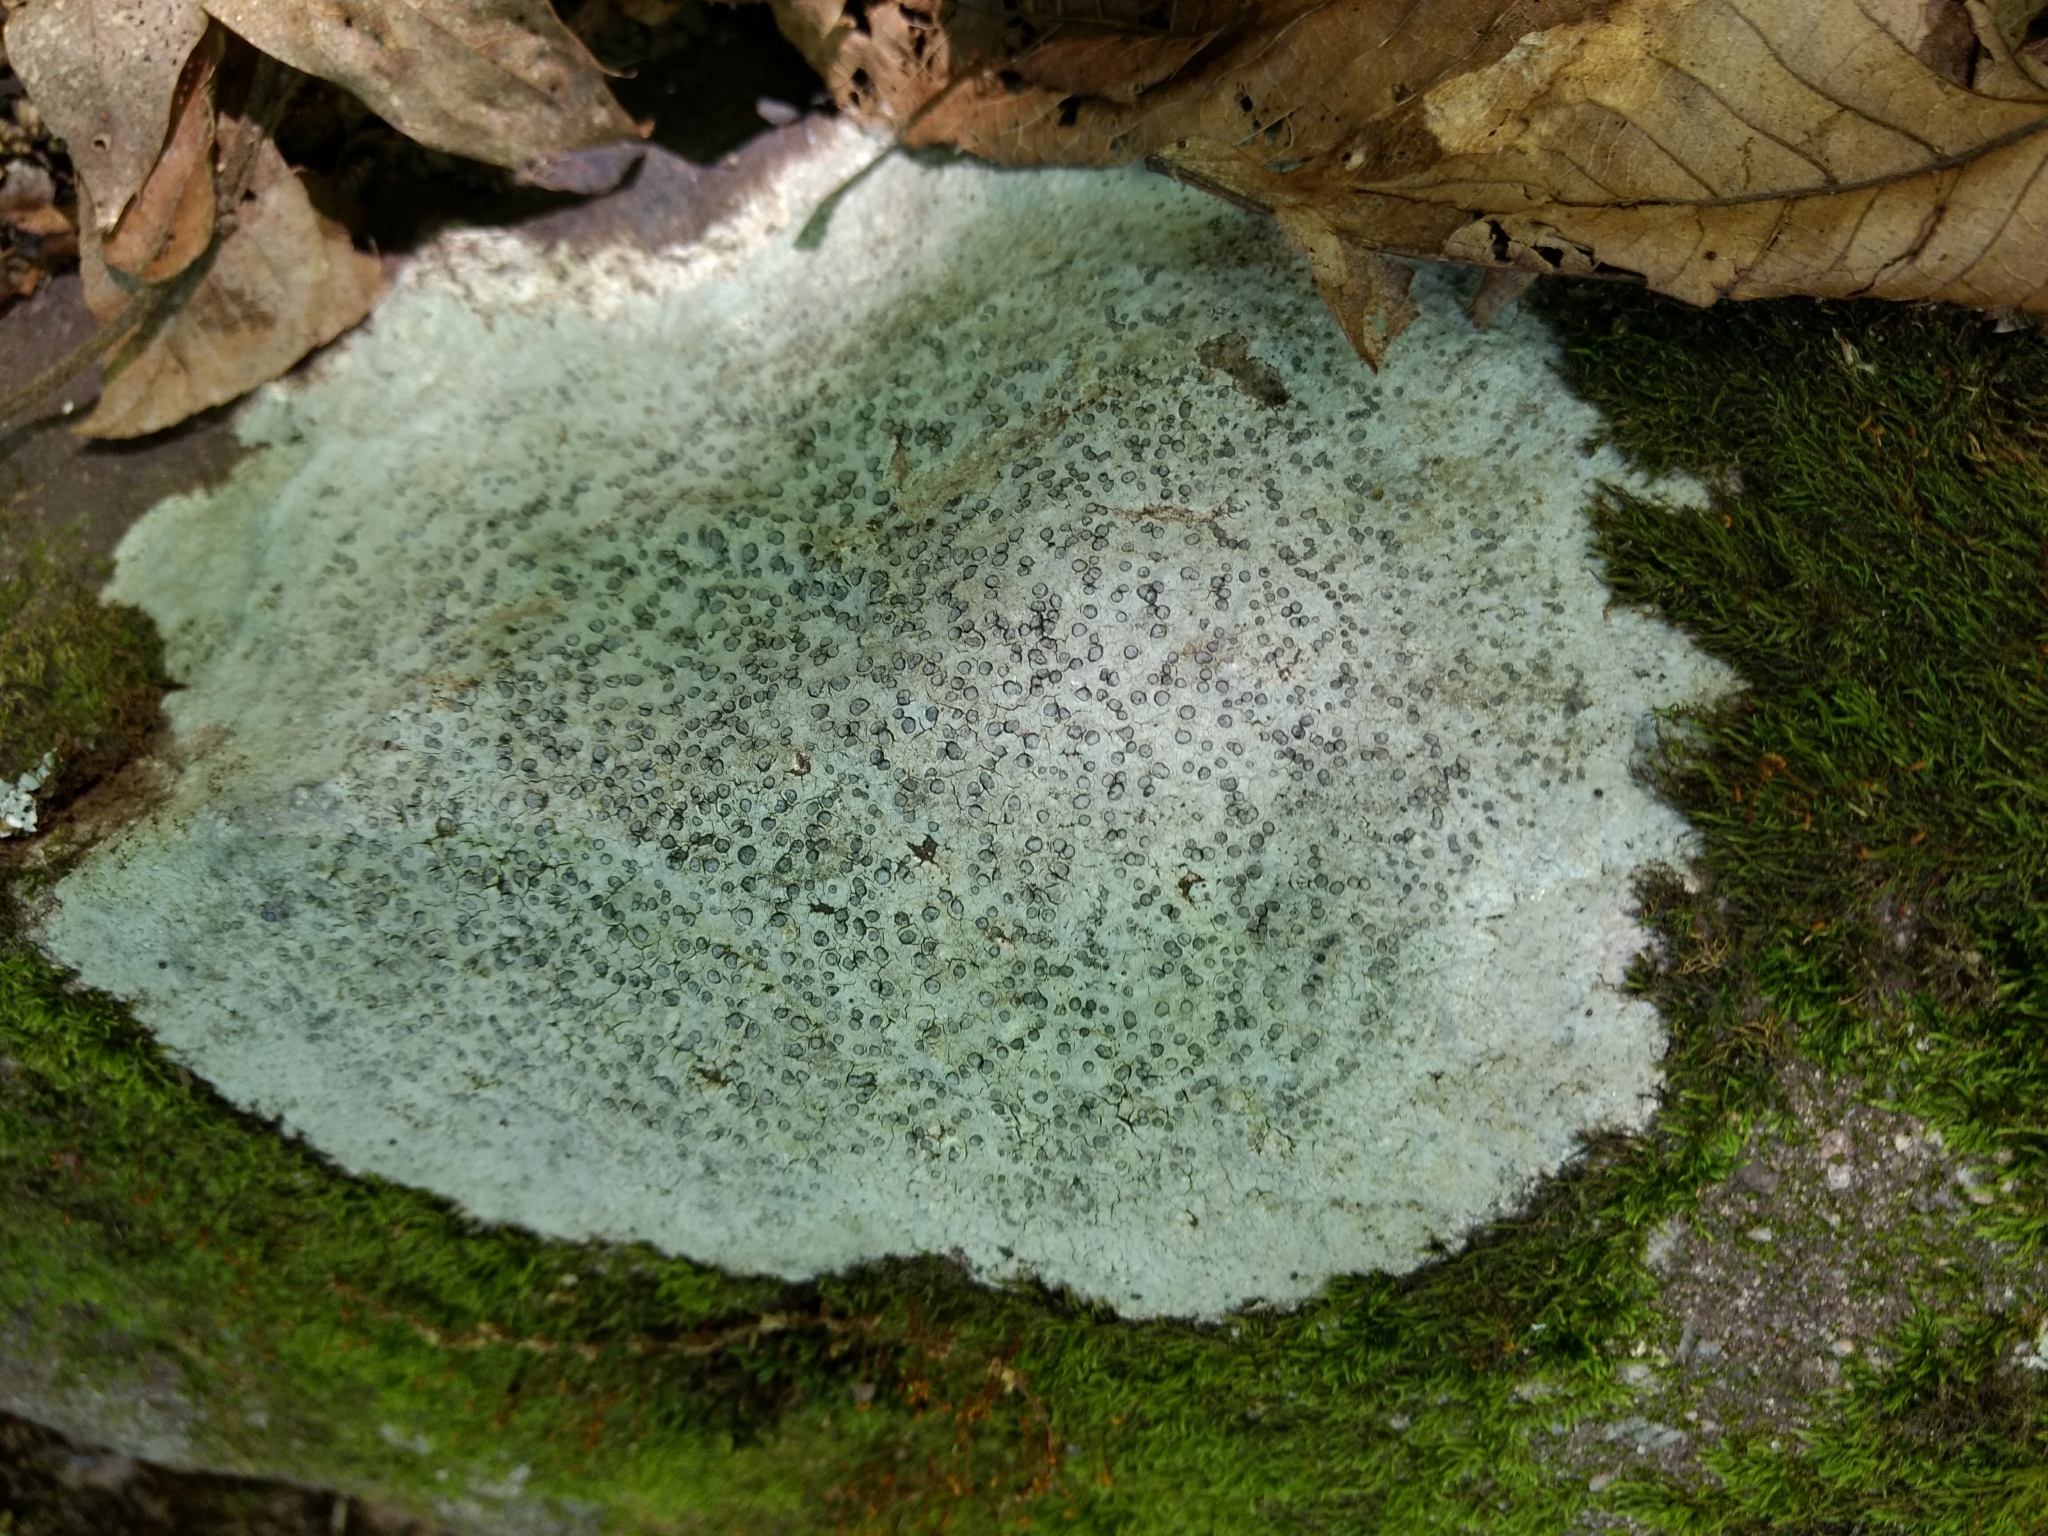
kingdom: Fungi
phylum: Ascomycota
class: Lecanoromycetes
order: Lecideales
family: Lecideaceae
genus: Porpidia
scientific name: Porpidia albocaerulescens
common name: Smokey-eyed boulder lichen
